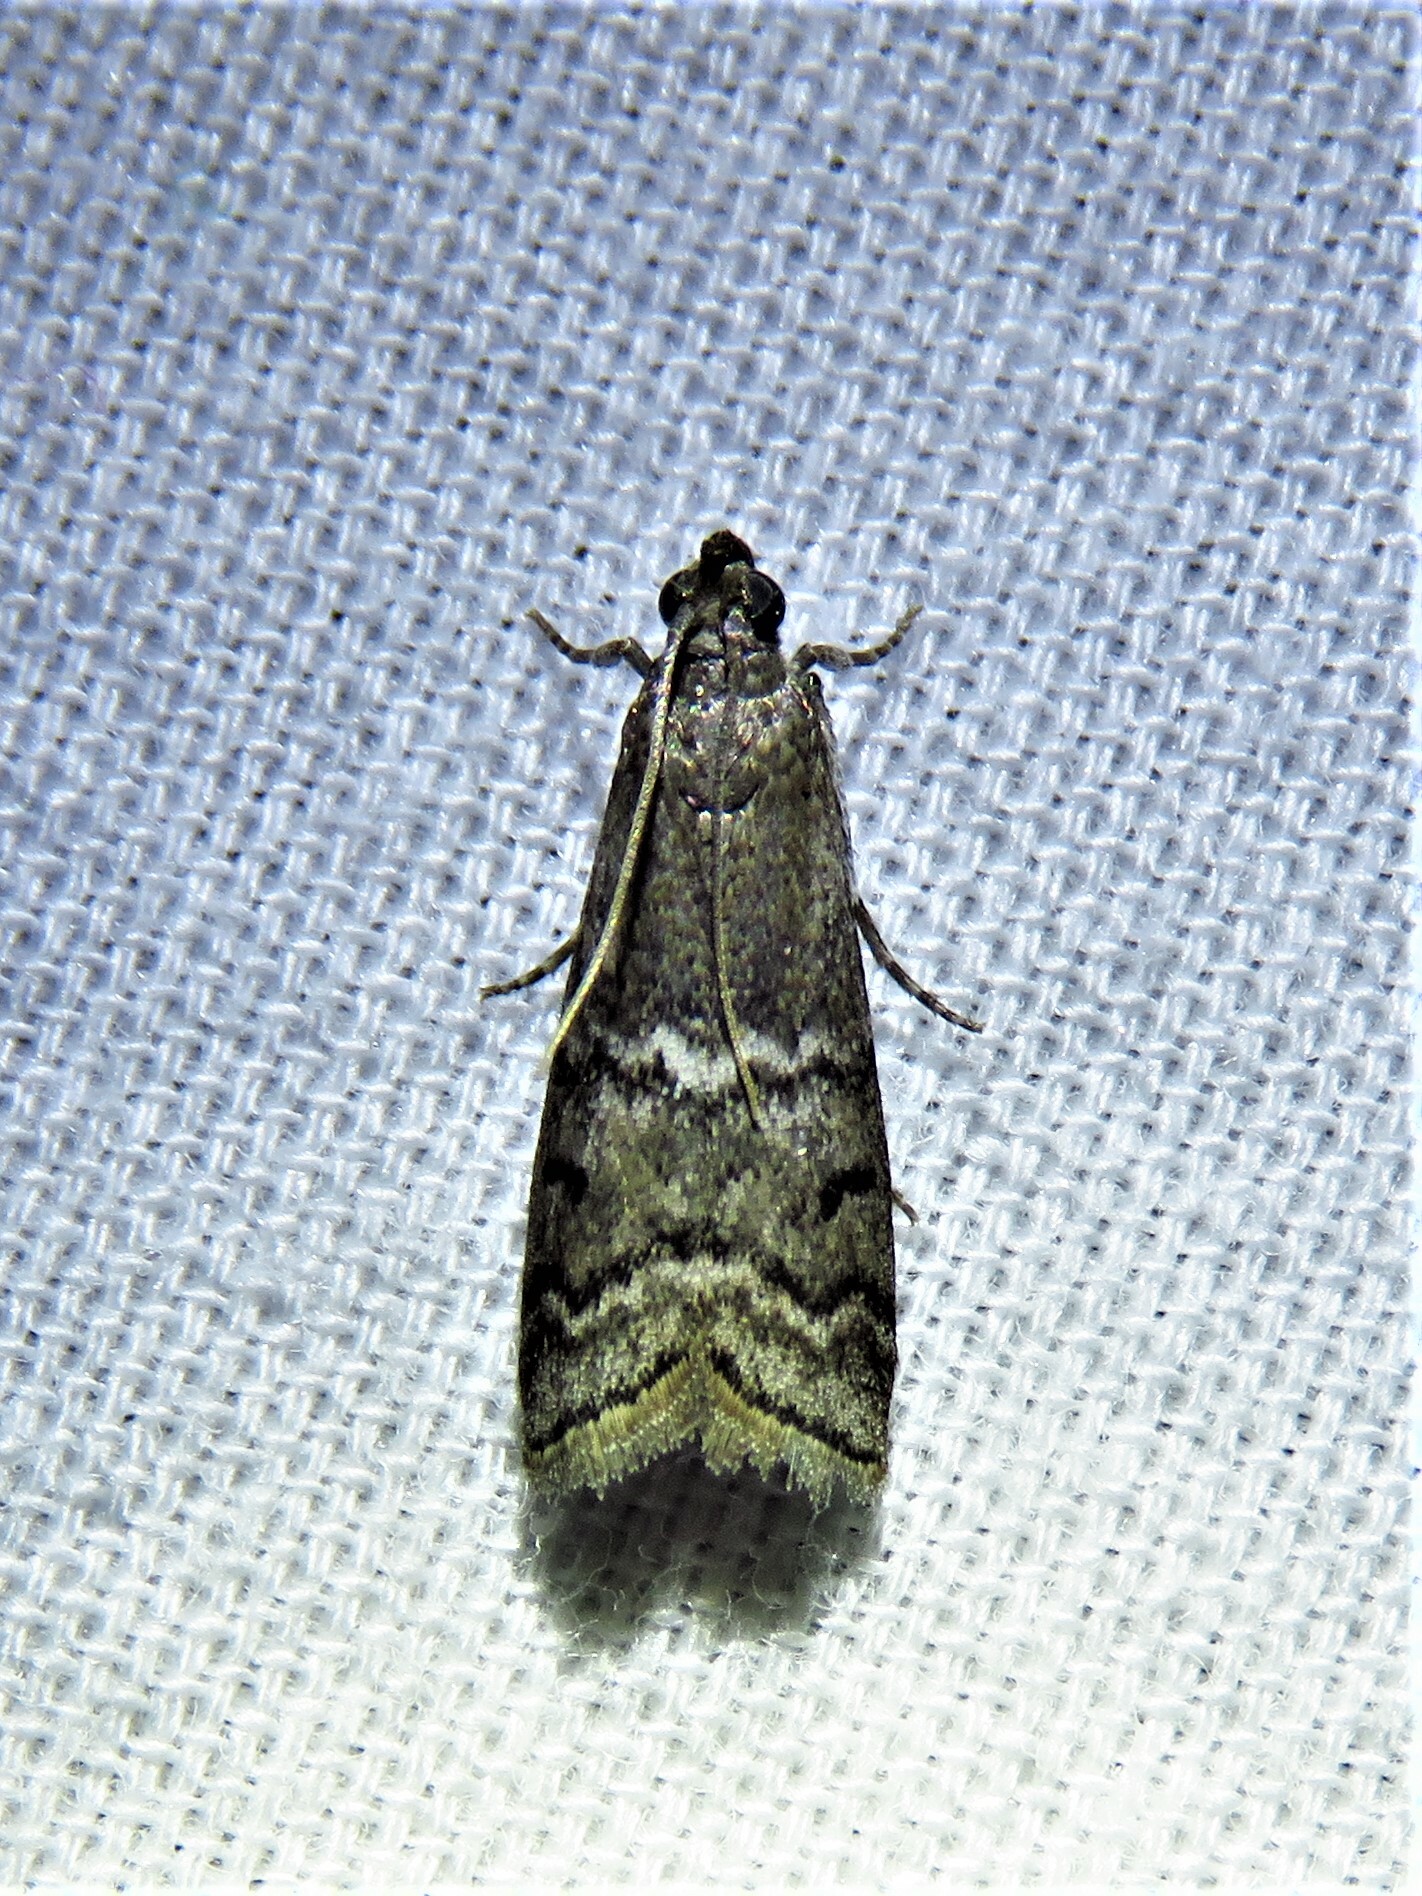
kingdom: Animalia
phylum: Arthropoda
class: Insecta
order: Lepidoptera
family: Pyralidae
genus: Ancylosis
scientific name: Ancylosis Canarsia ulmiarrosorella
